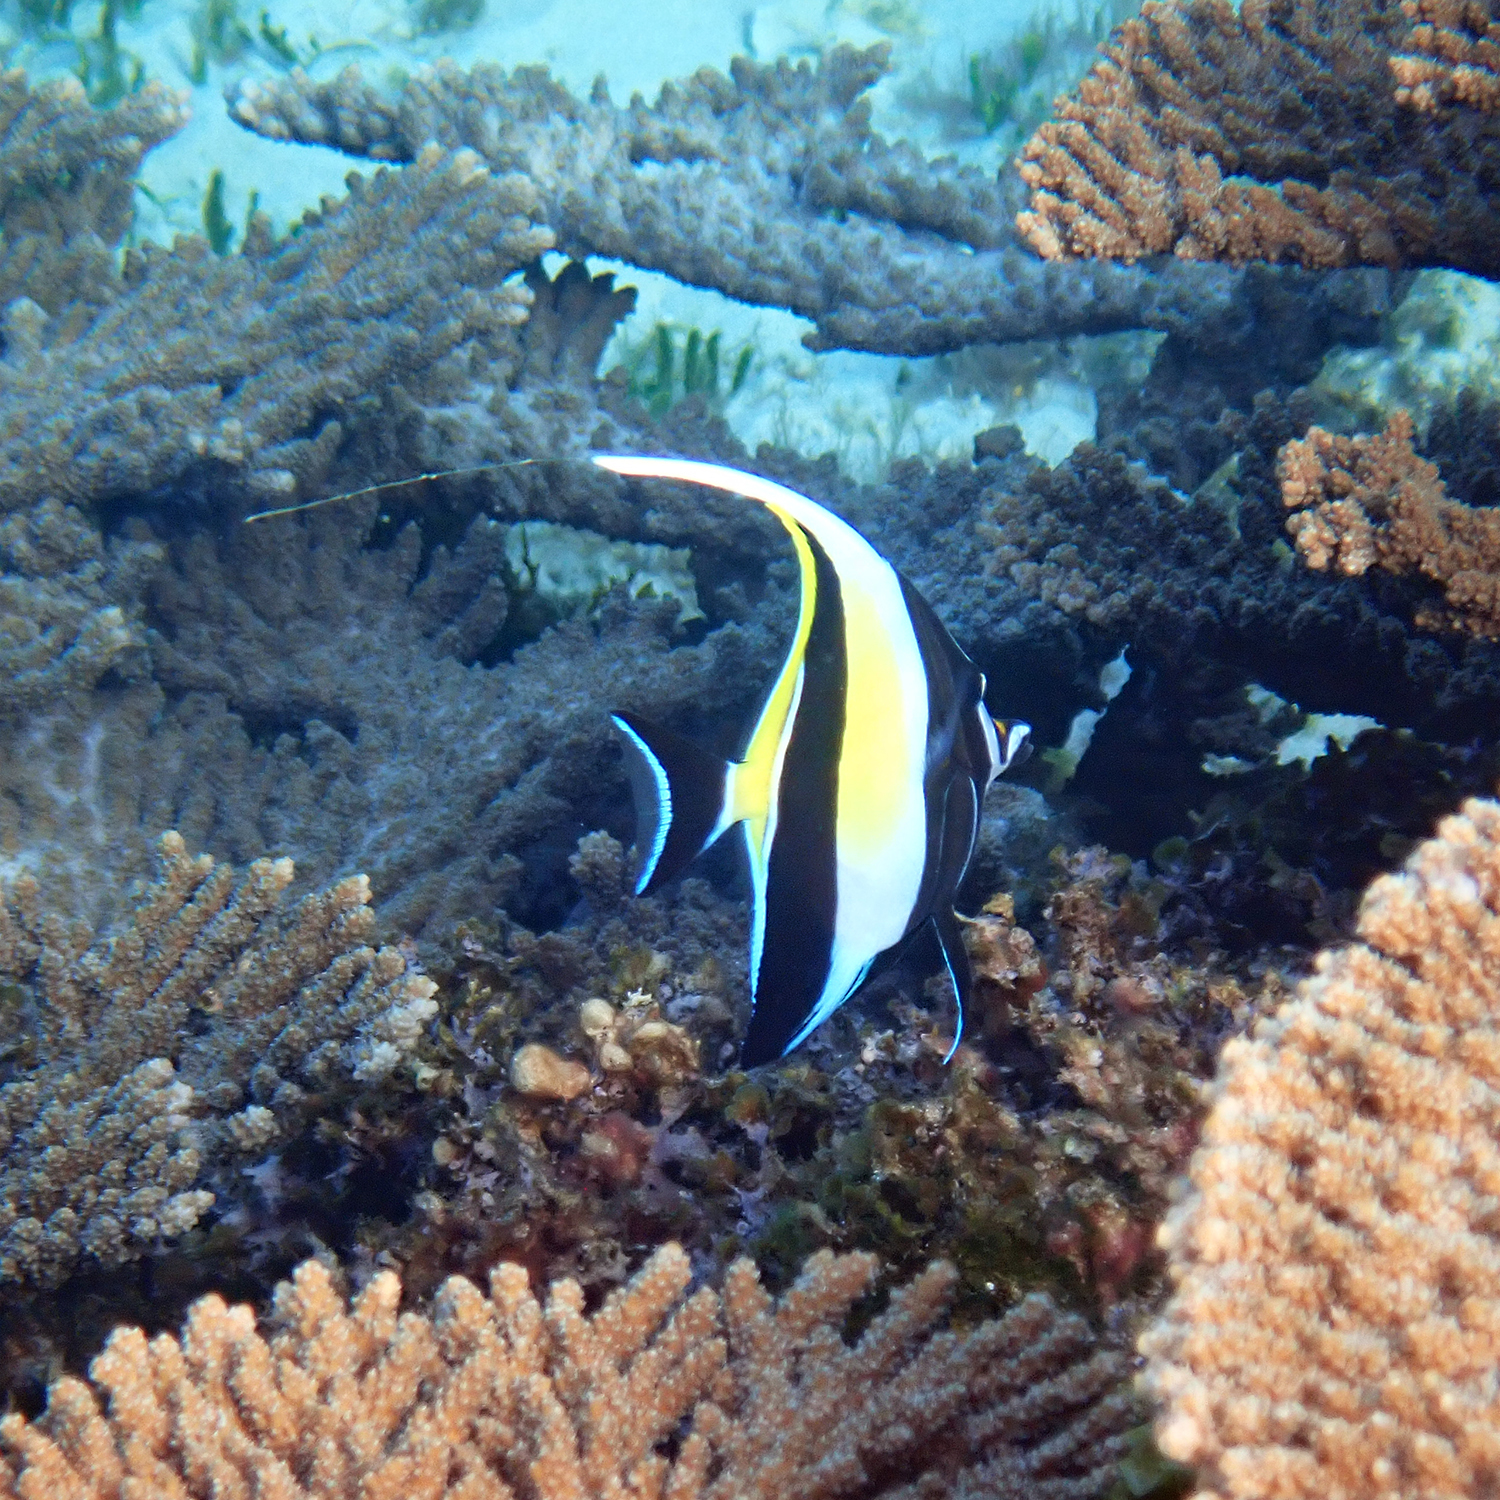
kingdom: Animalia
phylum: Chordata
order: Perciformes
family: Zanclidae
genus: Zanclus
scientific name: Zanclus cornutus
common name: Moorish idol
